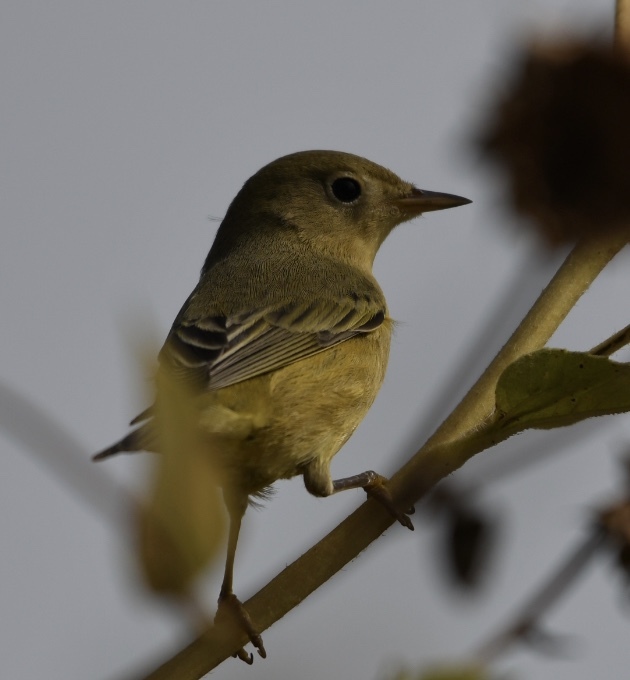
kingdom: Animalia
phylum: Chordata
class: Aves
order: Passeriformes
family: Parulidae
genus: Setophaga
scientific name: Setophaga petechia
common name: Yellow warbler
